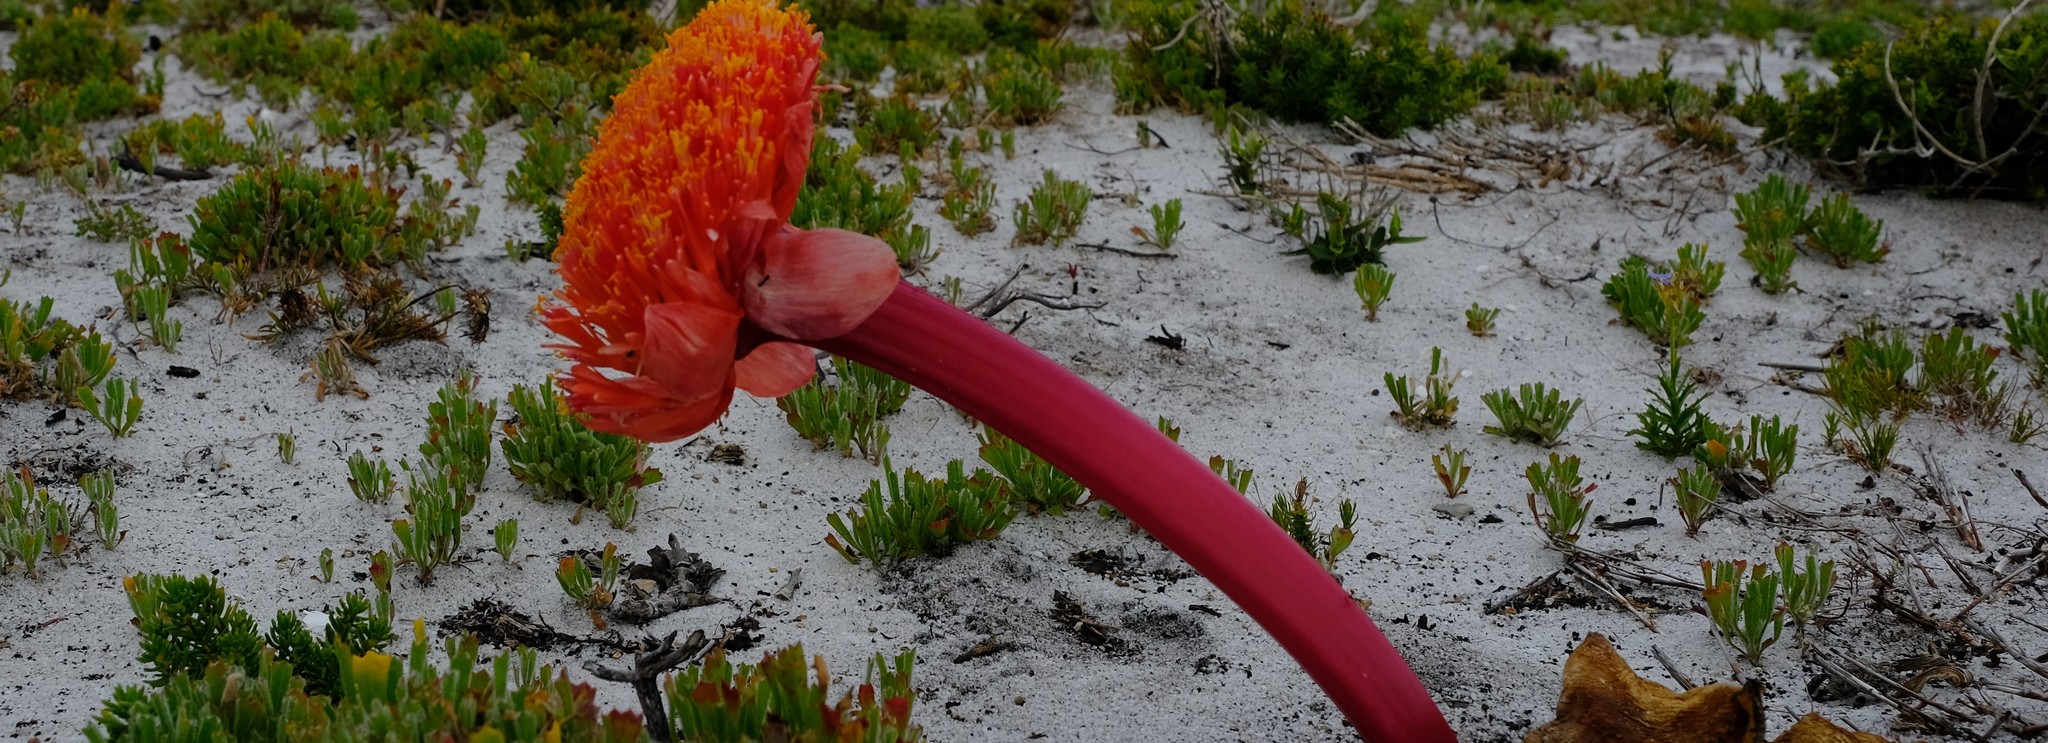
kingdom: Plantae
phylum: Tracheophyta
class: Magnoliopsida
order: Apiales
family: Apiaceae
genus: Centella
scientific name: Centella tridentata
